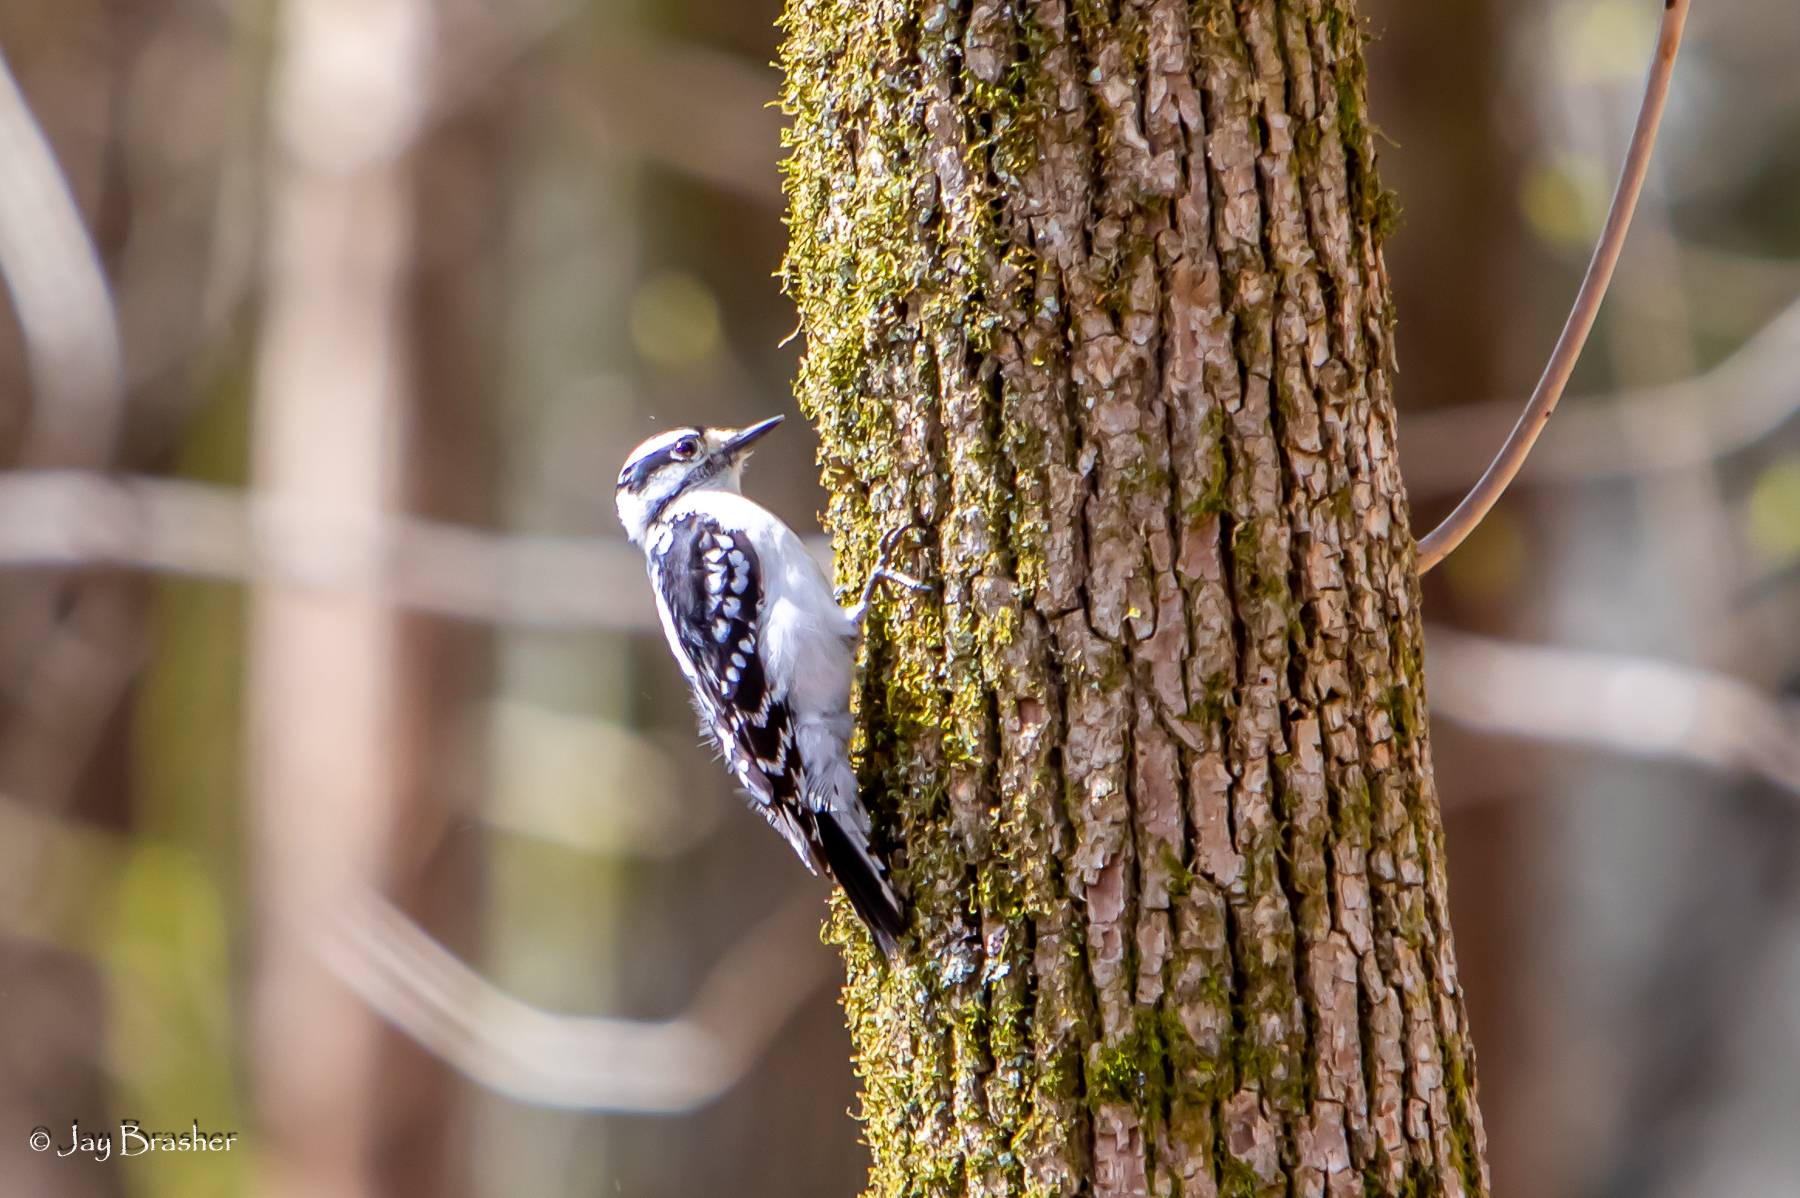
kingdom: Animalia
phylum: Chordata
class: Aves
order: Piciformes
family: Picidae
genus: Dryobates
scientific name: Dryobates pubescens
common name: Downy woodpecker
